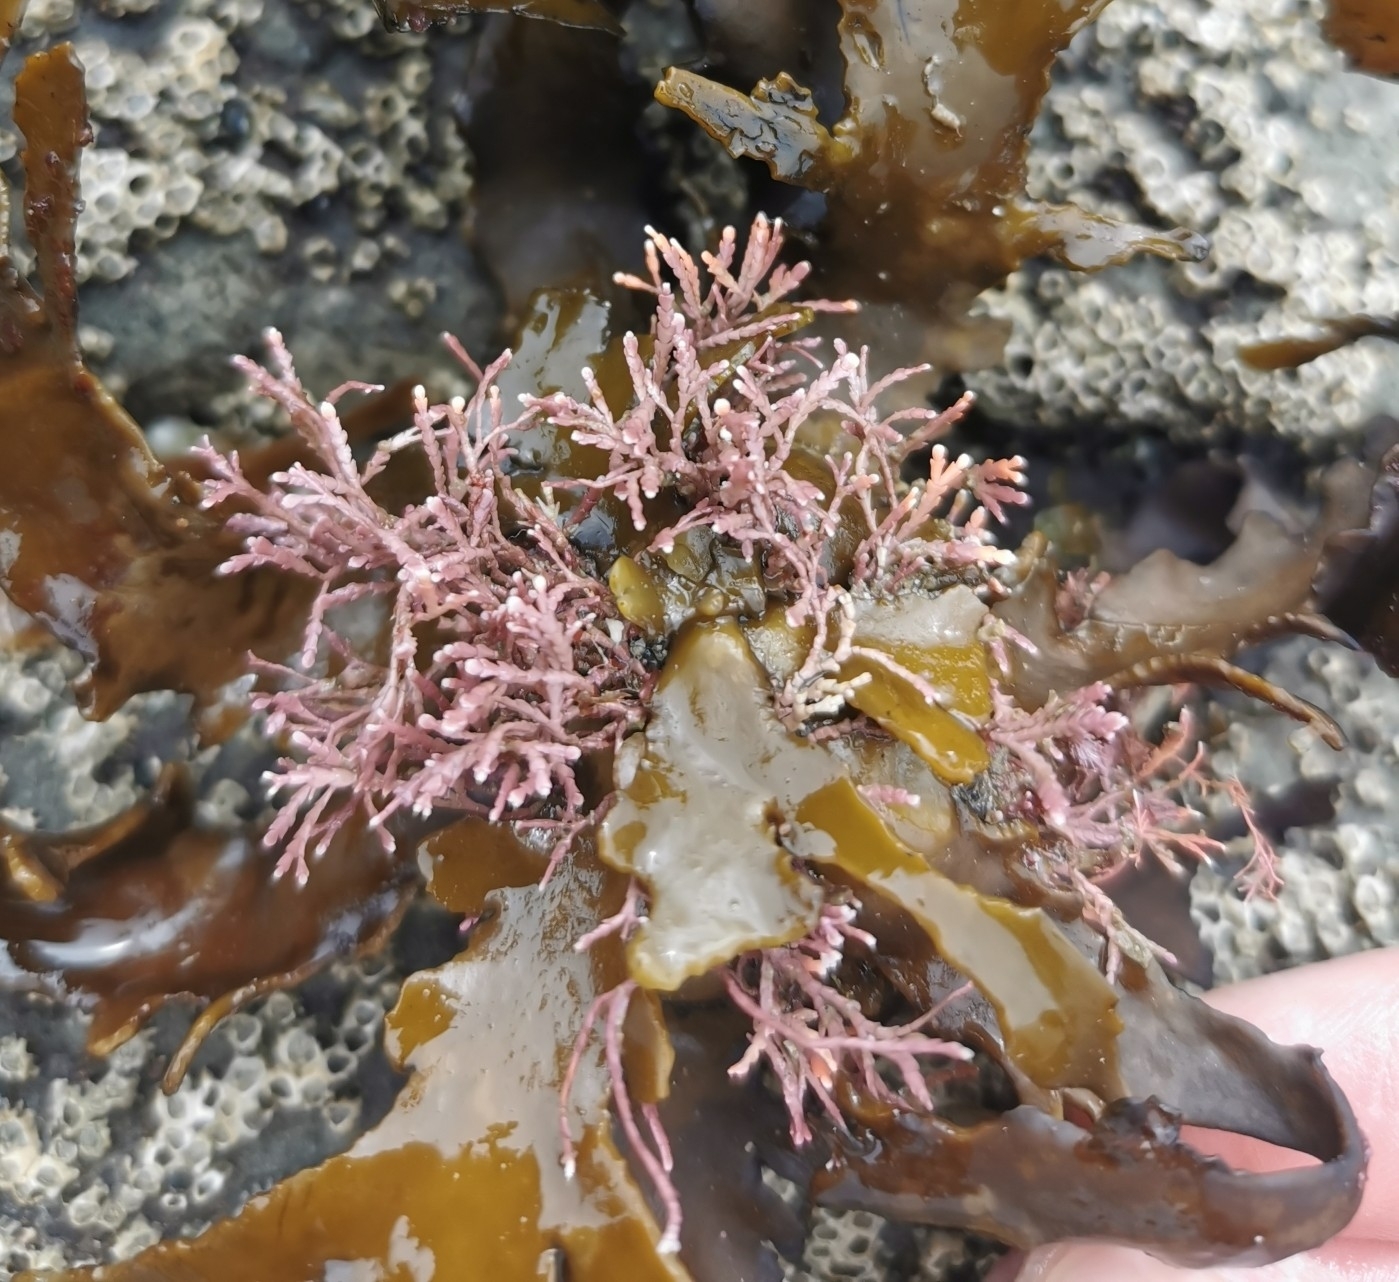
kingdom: Plantae
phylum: Rhodophyta
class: Florideophyceae
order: Corallinales
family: Corallinaceae
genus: Jania
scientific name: Jania sagittata
